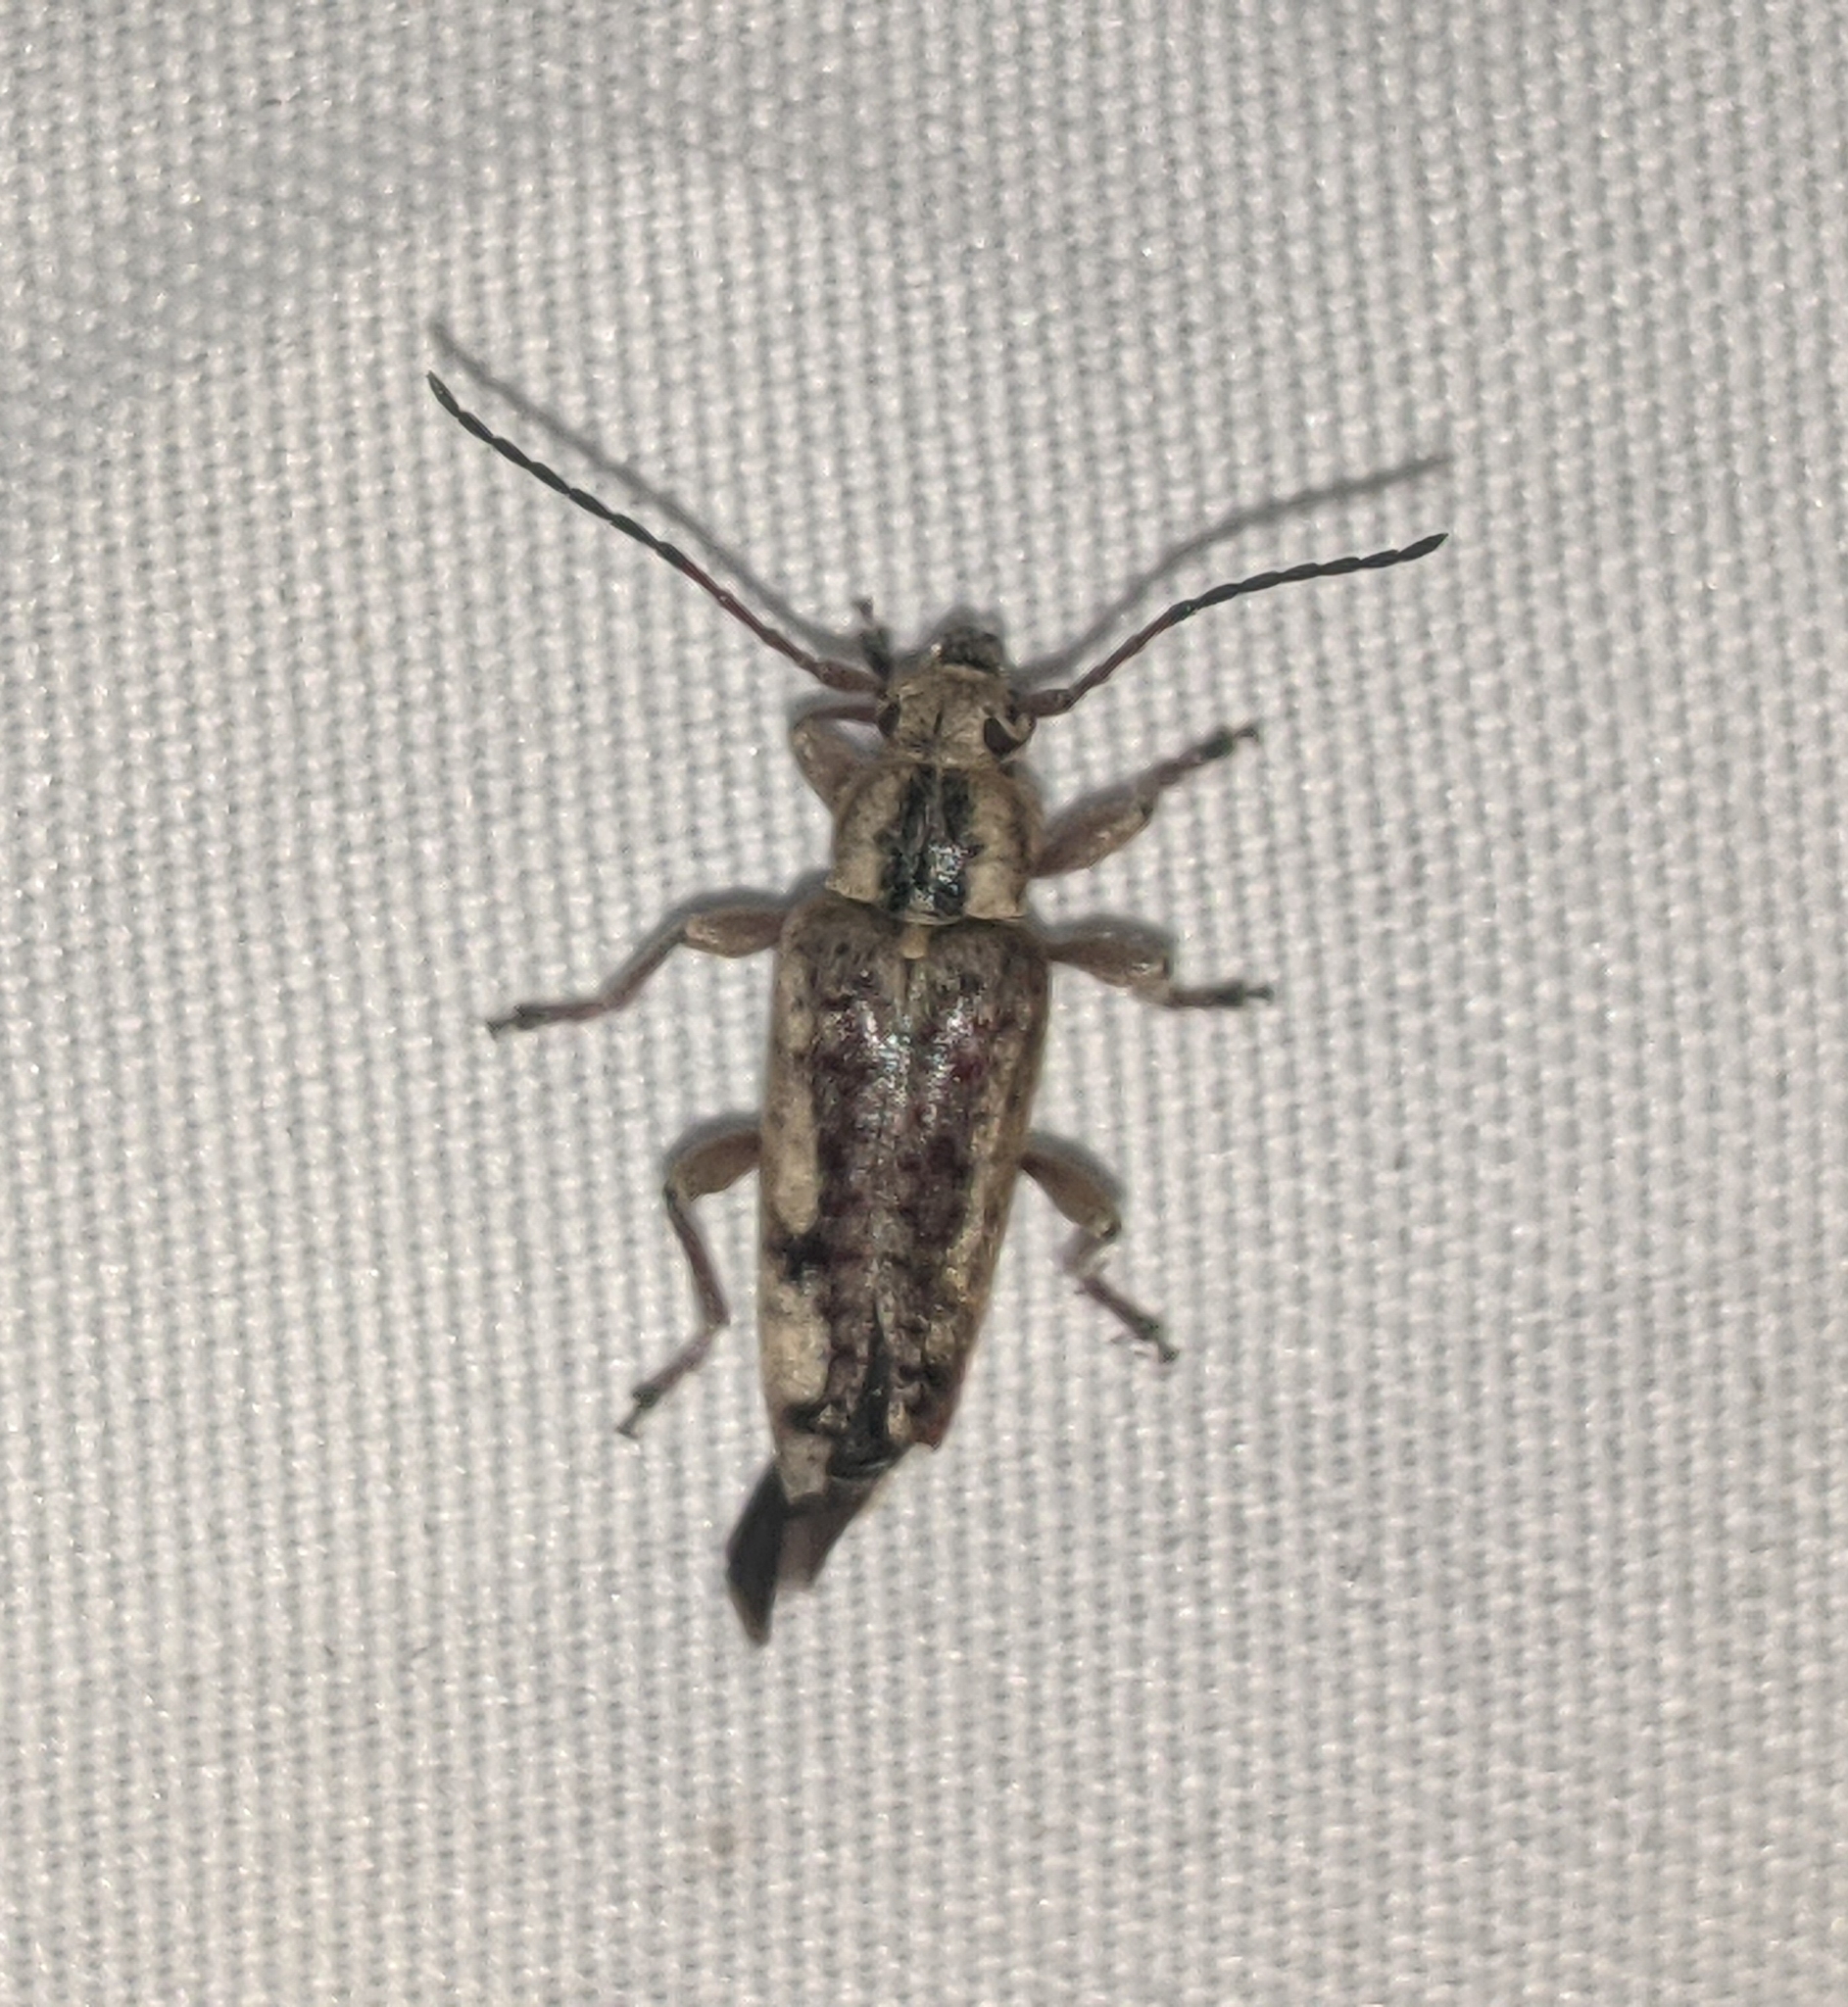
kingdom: Animalia
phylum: Arthropoda
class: Insecta
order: Coleoptera
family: Cerambycidae
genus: Atimia
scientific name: Atimia confusa
